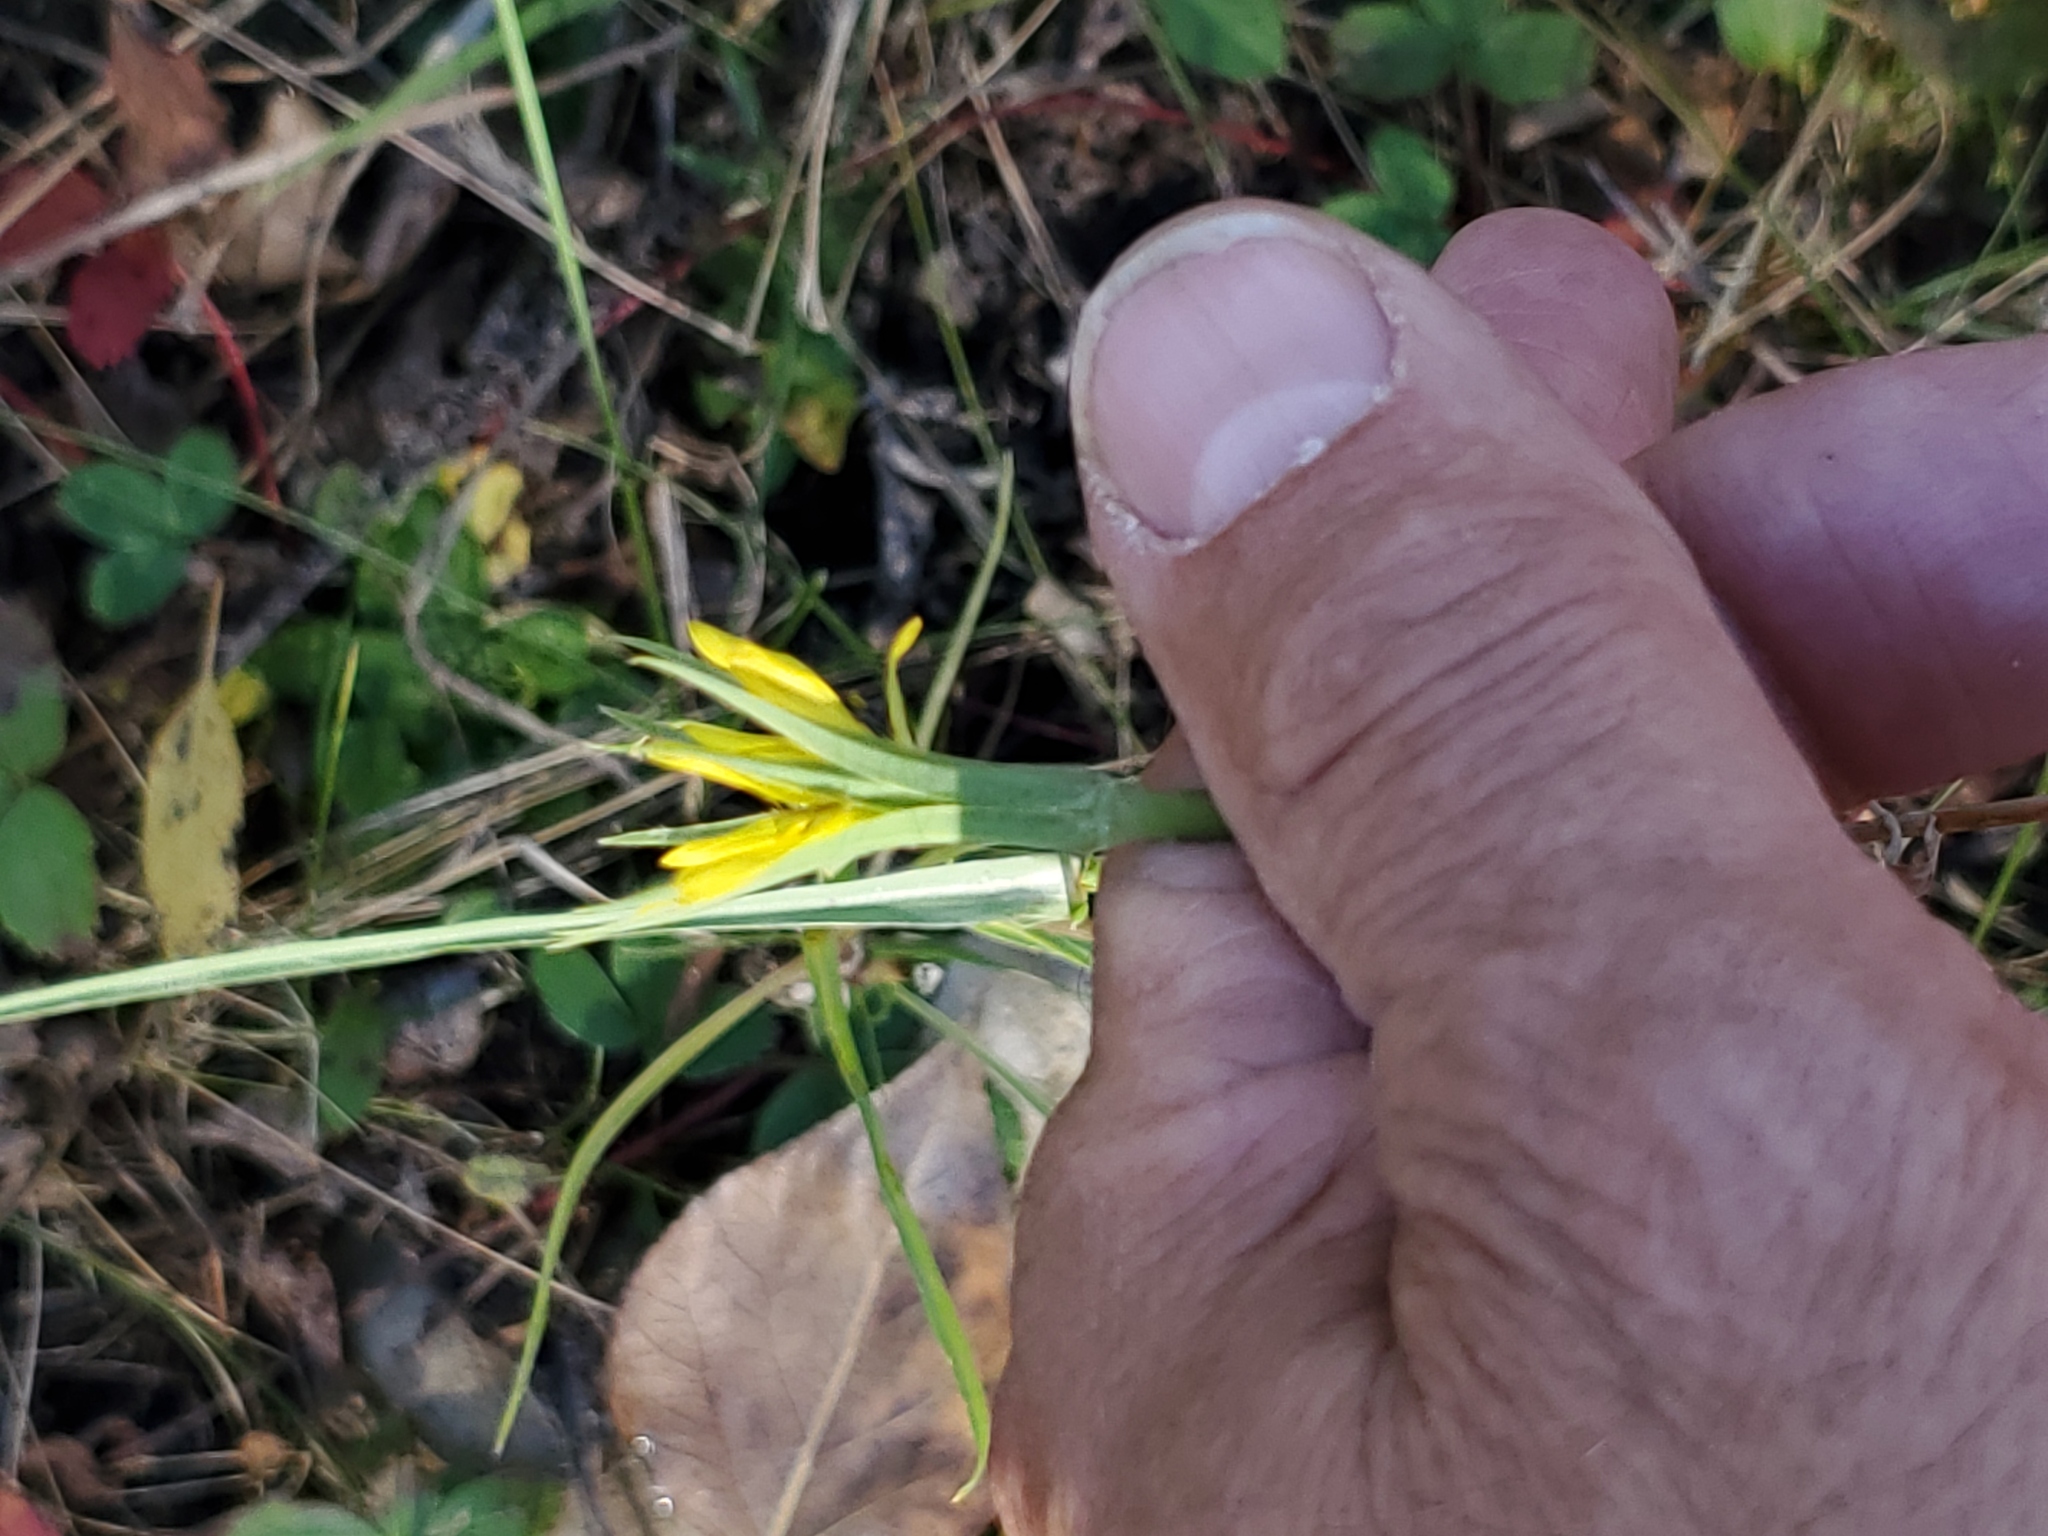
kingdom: Plantae
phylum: Tracheophyta
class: Magnoliopsida
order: Asterales
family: Asteraceae
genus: Tragopogon
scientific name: Tragopogon dubius
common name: Yellow salsify
